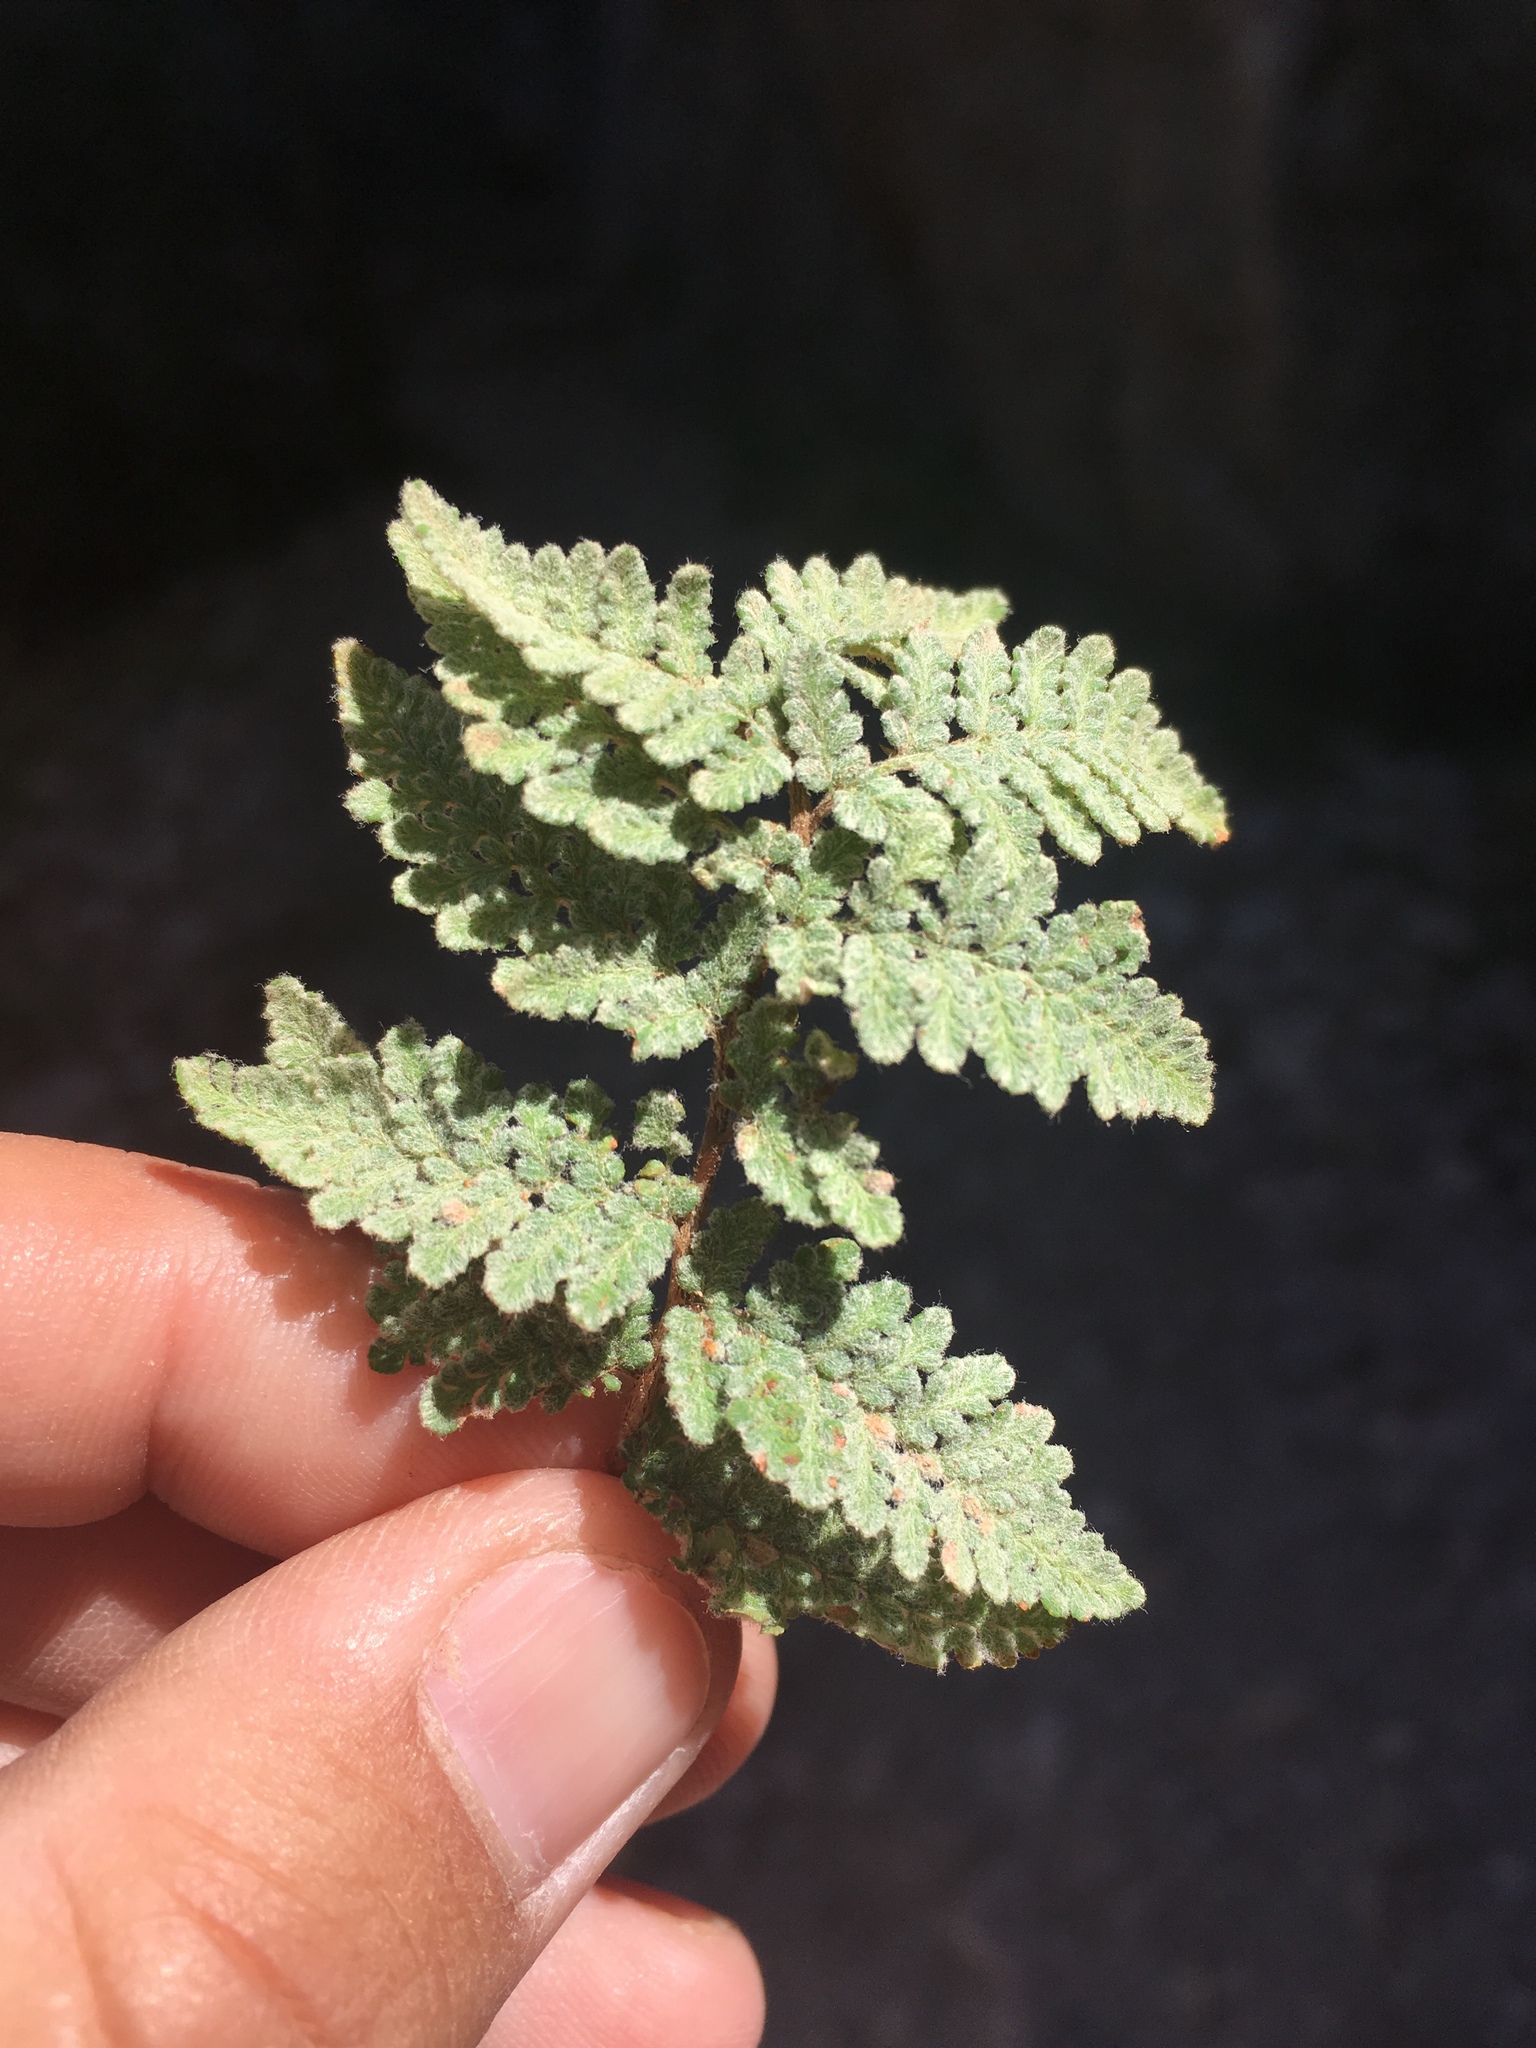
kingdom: Plantae
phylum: Tracheophyta
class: Polypodiopsida
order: Polypodiales
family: Pteridaceae
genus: Myriopteris
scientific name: Myriopteris rufa
